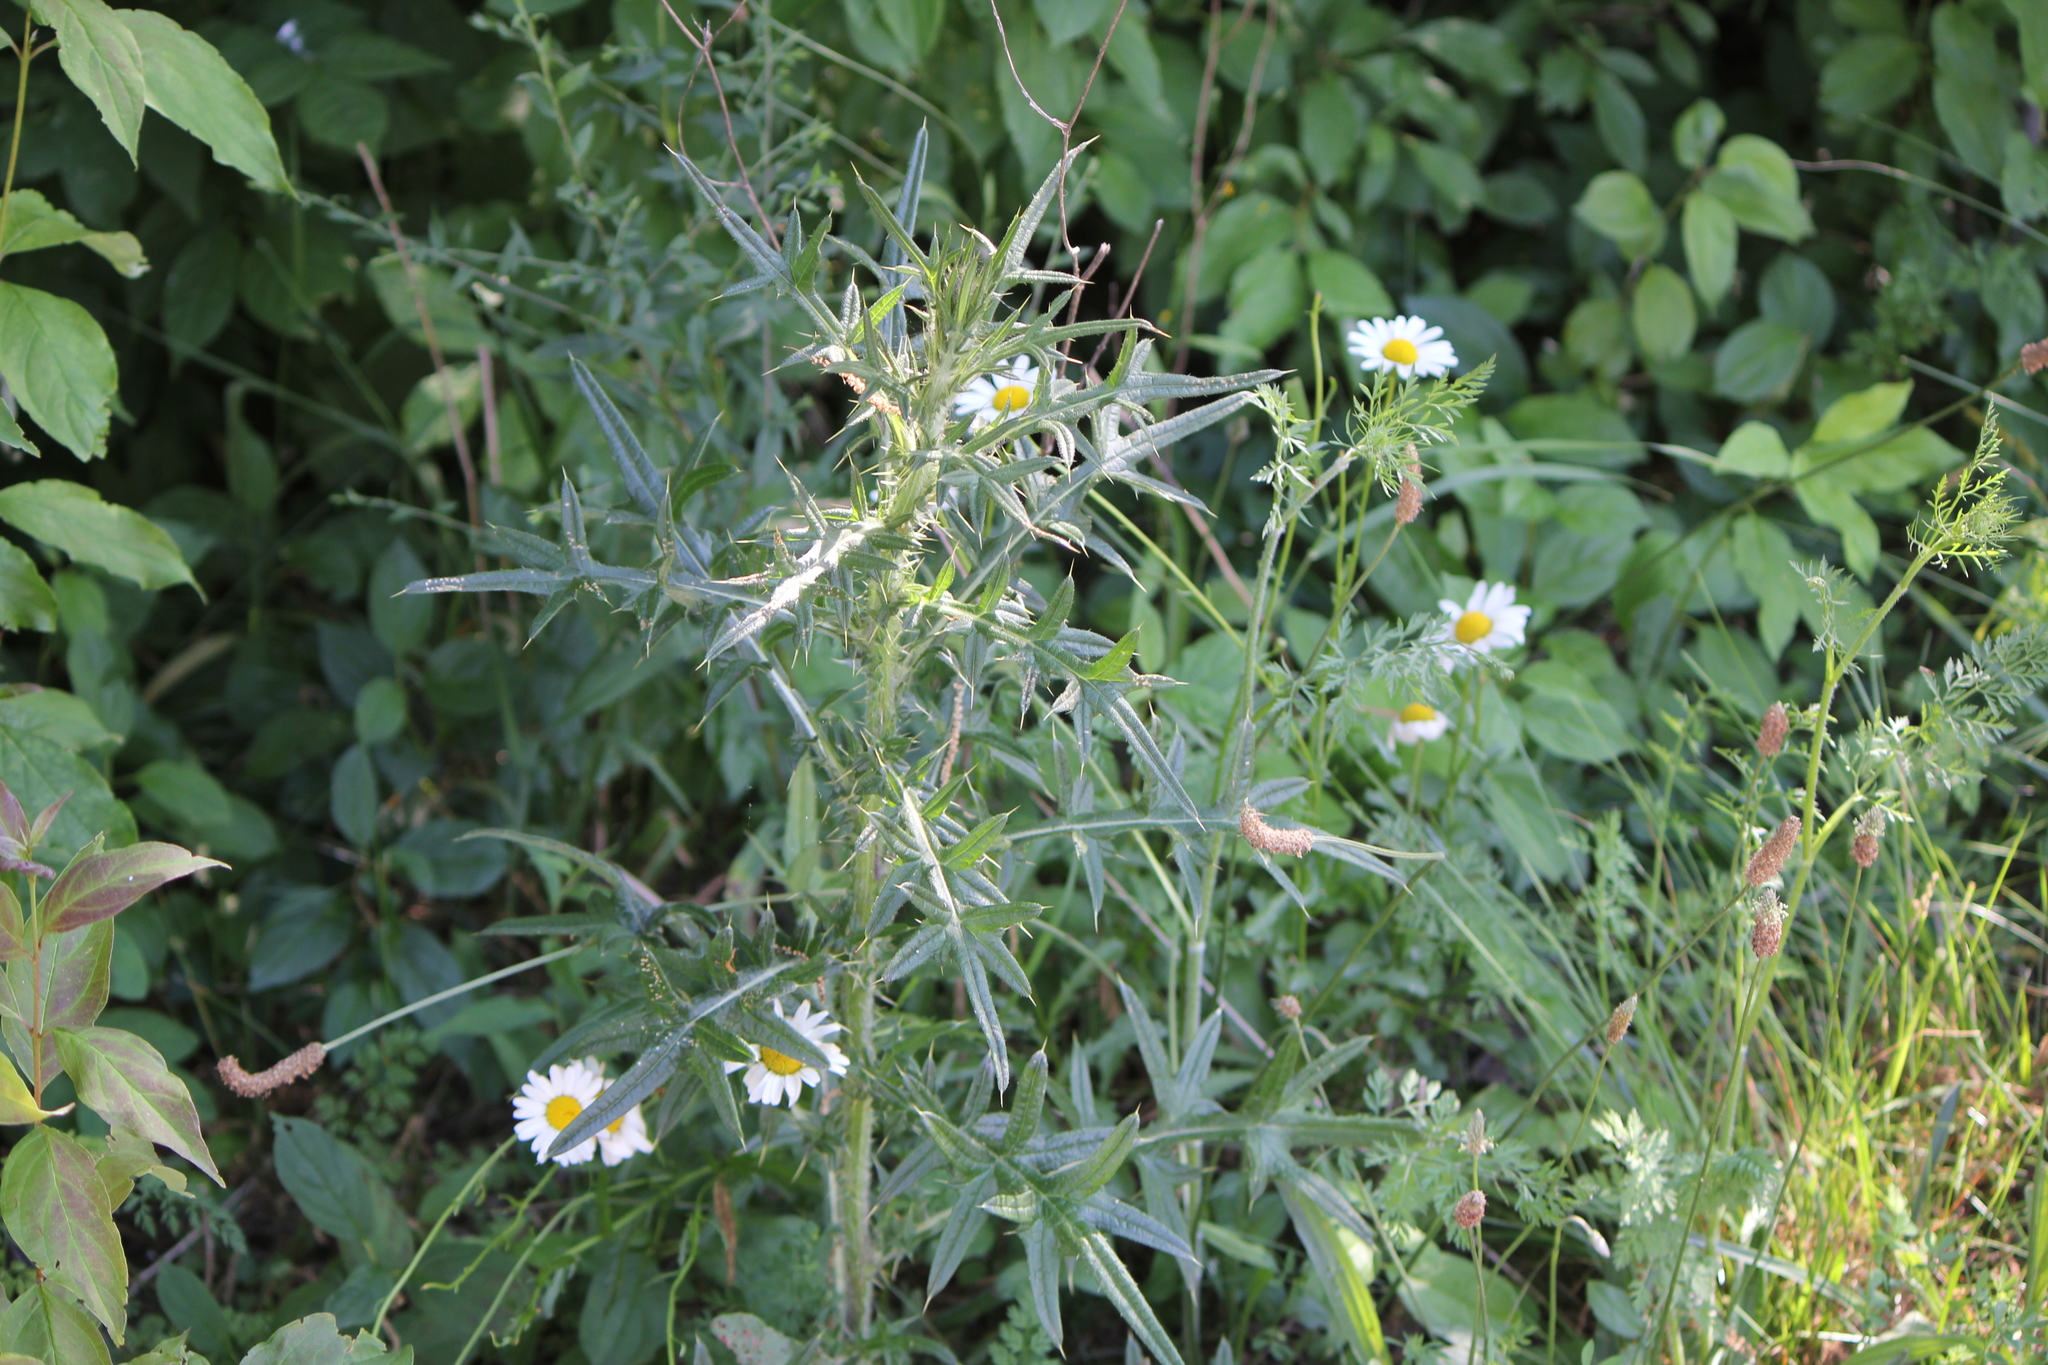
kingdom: Plantae
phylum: Tracheophyta
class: Magnoliopsida
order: Asterales
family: Asteraceae
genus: Cirsium
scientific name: Cirsium vulgare
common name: Bull thistle
